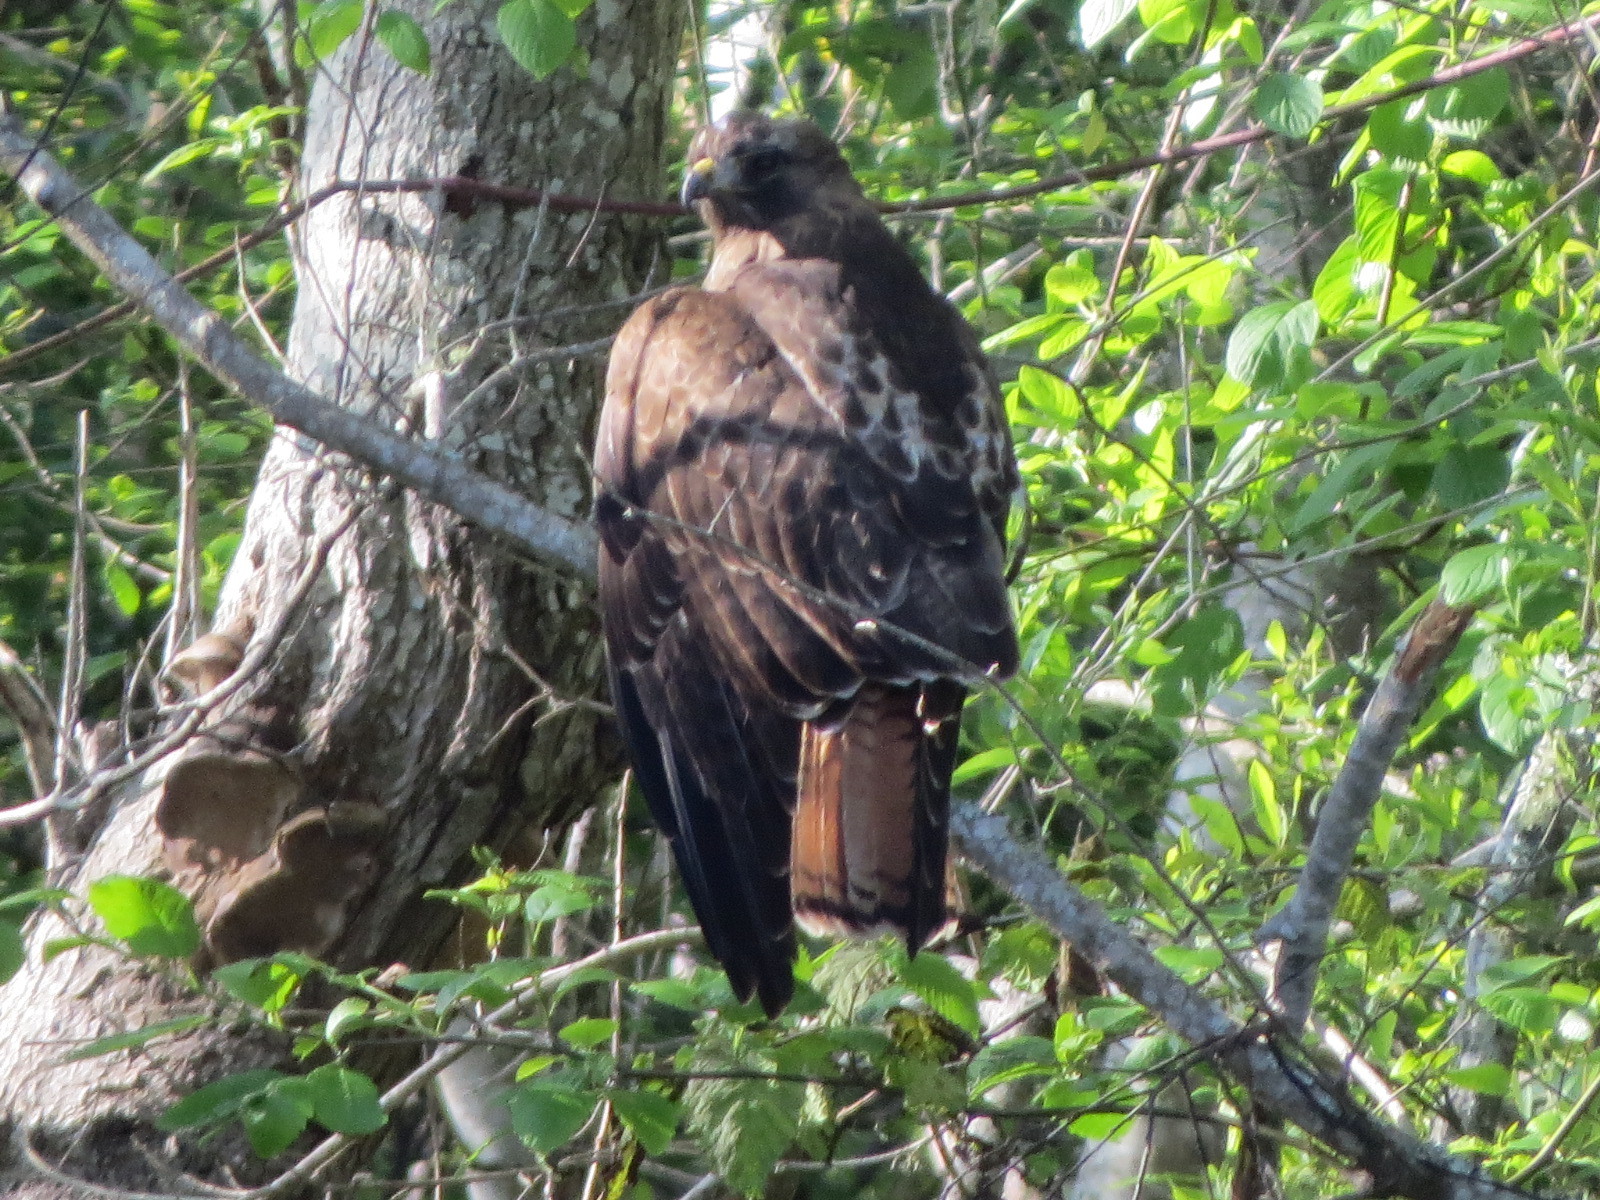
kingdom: Animalia
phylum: Chordata
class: Aves
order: Accipitriformes
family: Accipitridae
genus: Buteo
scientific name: Buteo jamaicensis
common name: Red-tailed hawk
